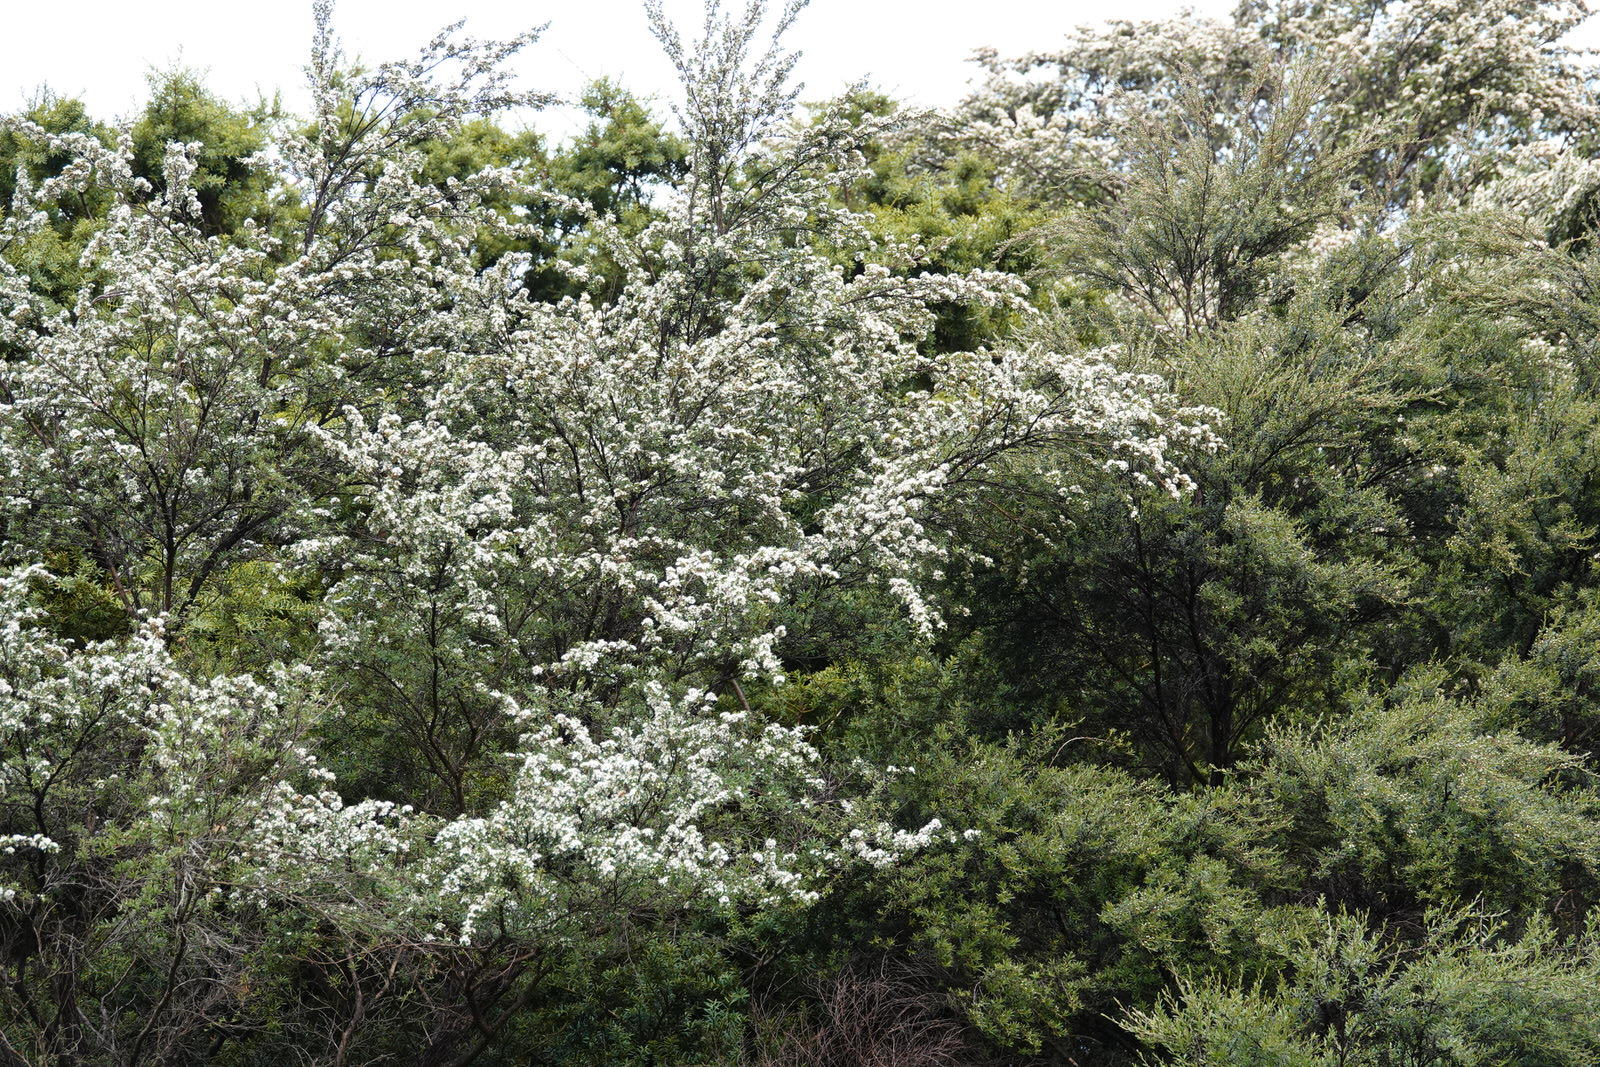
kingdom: Plantae
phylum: Tracheophyta
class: Magnoliopsida
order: Myrtales
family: Myrtaceae
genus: Kunzea
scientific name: Kunzea robusta
